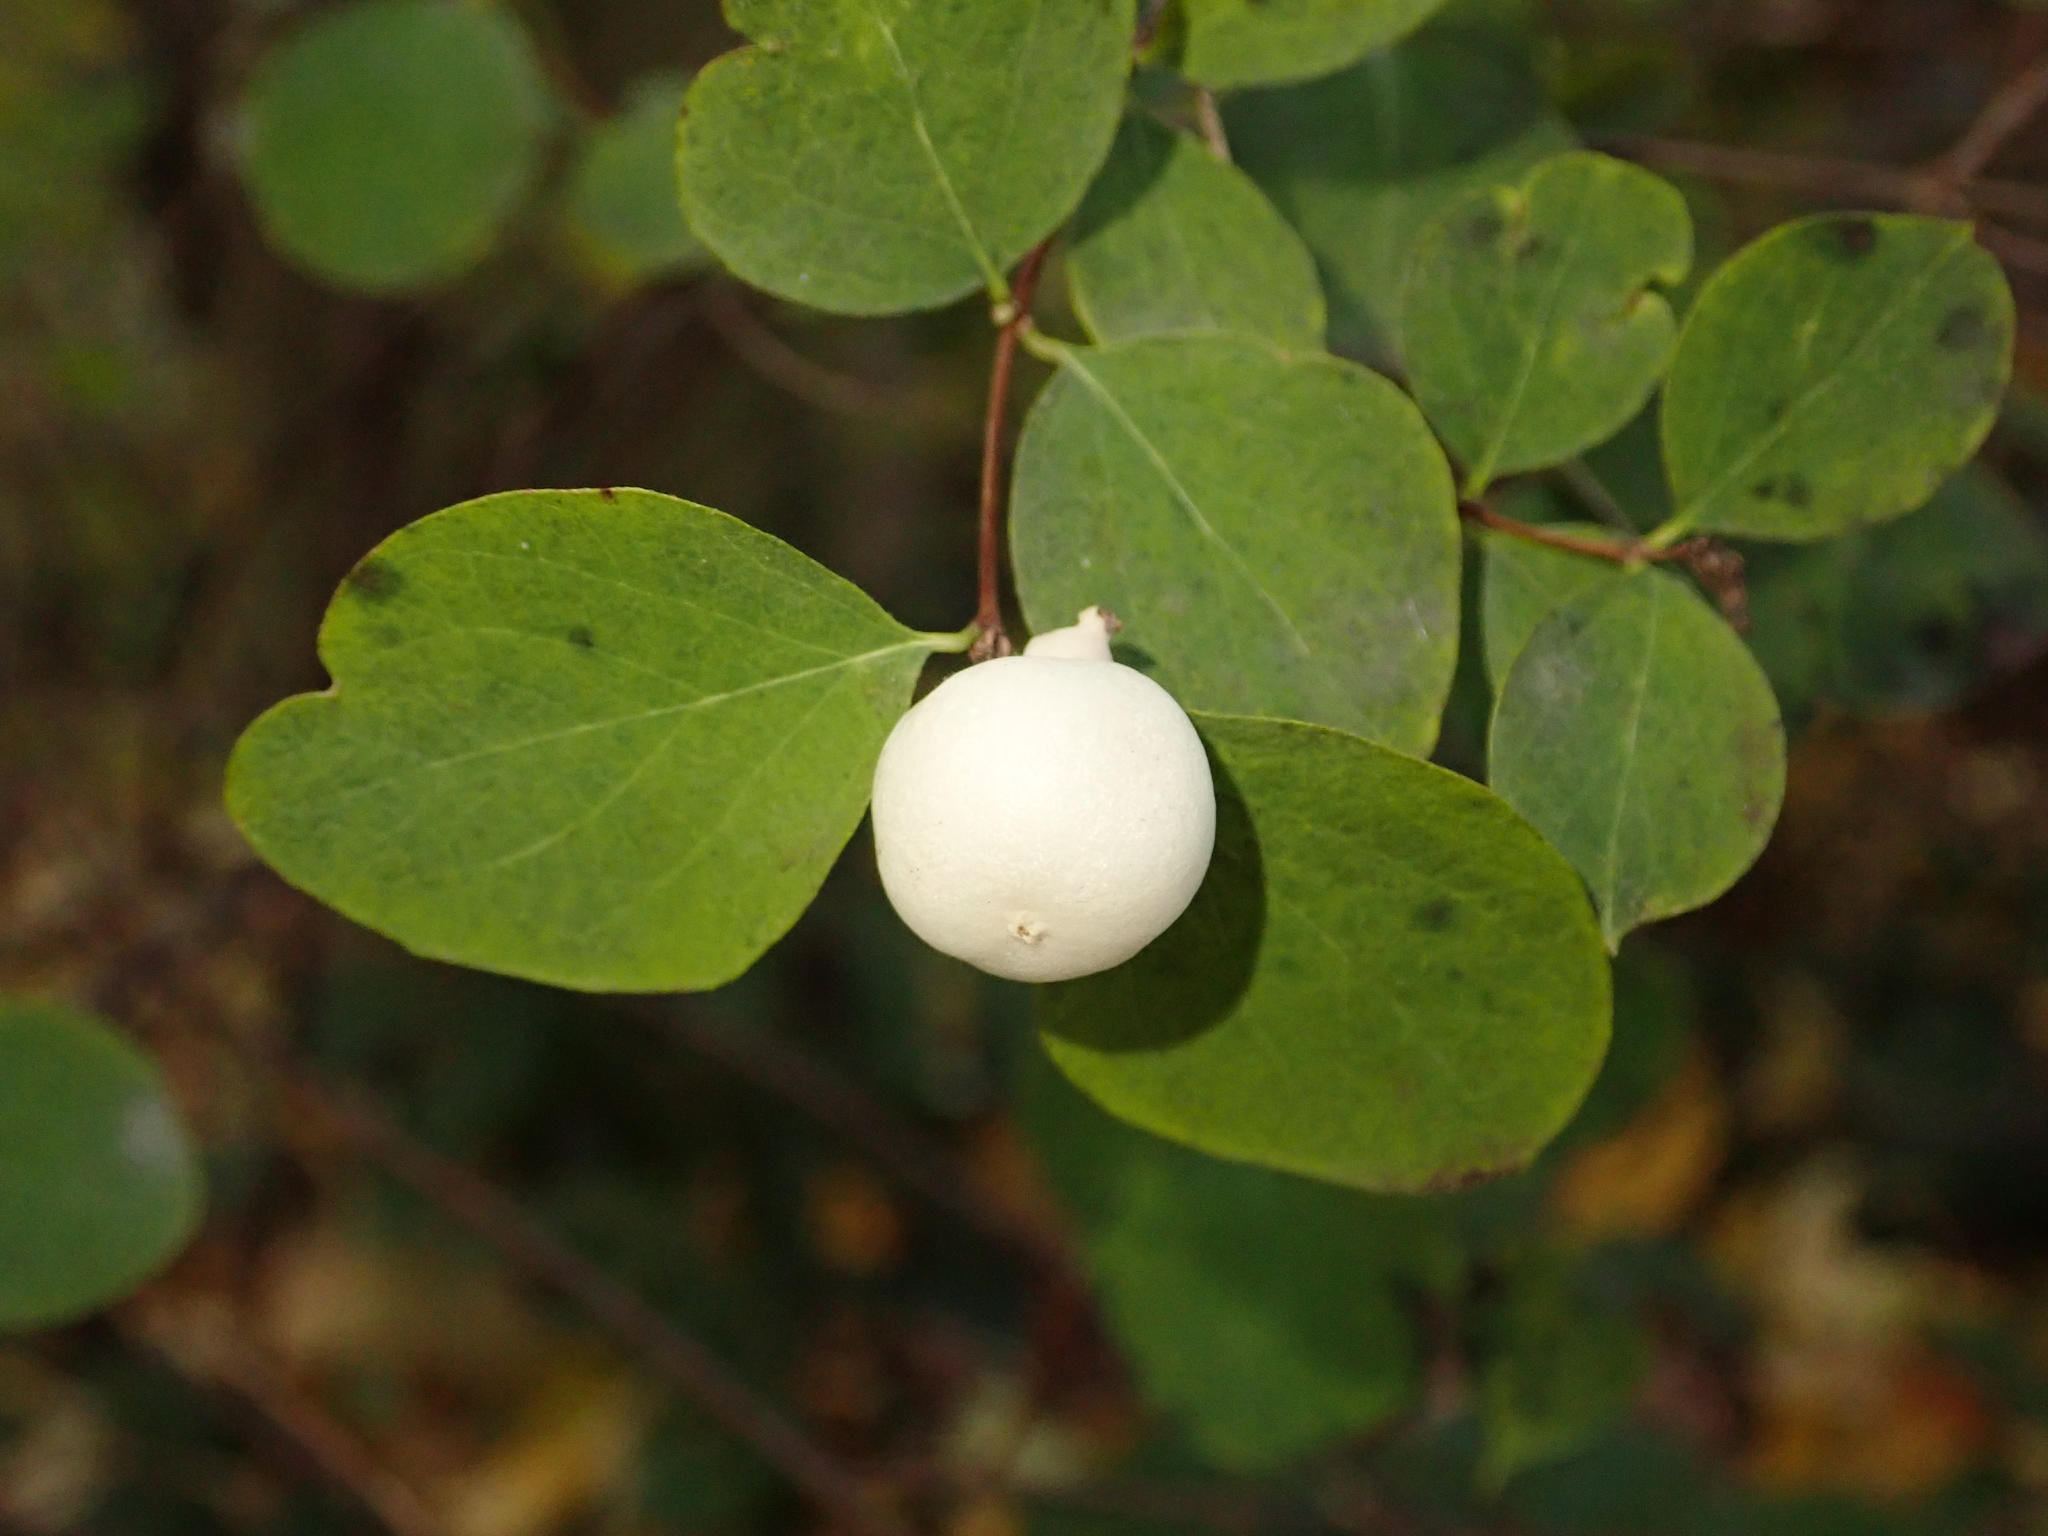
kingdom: Plantae
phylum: Tracheophyta
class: Magnoliopsida
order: Dipsacales
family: Caprifoliaceae
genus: Symphoricarpos
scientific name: Symphoricarpos albus
